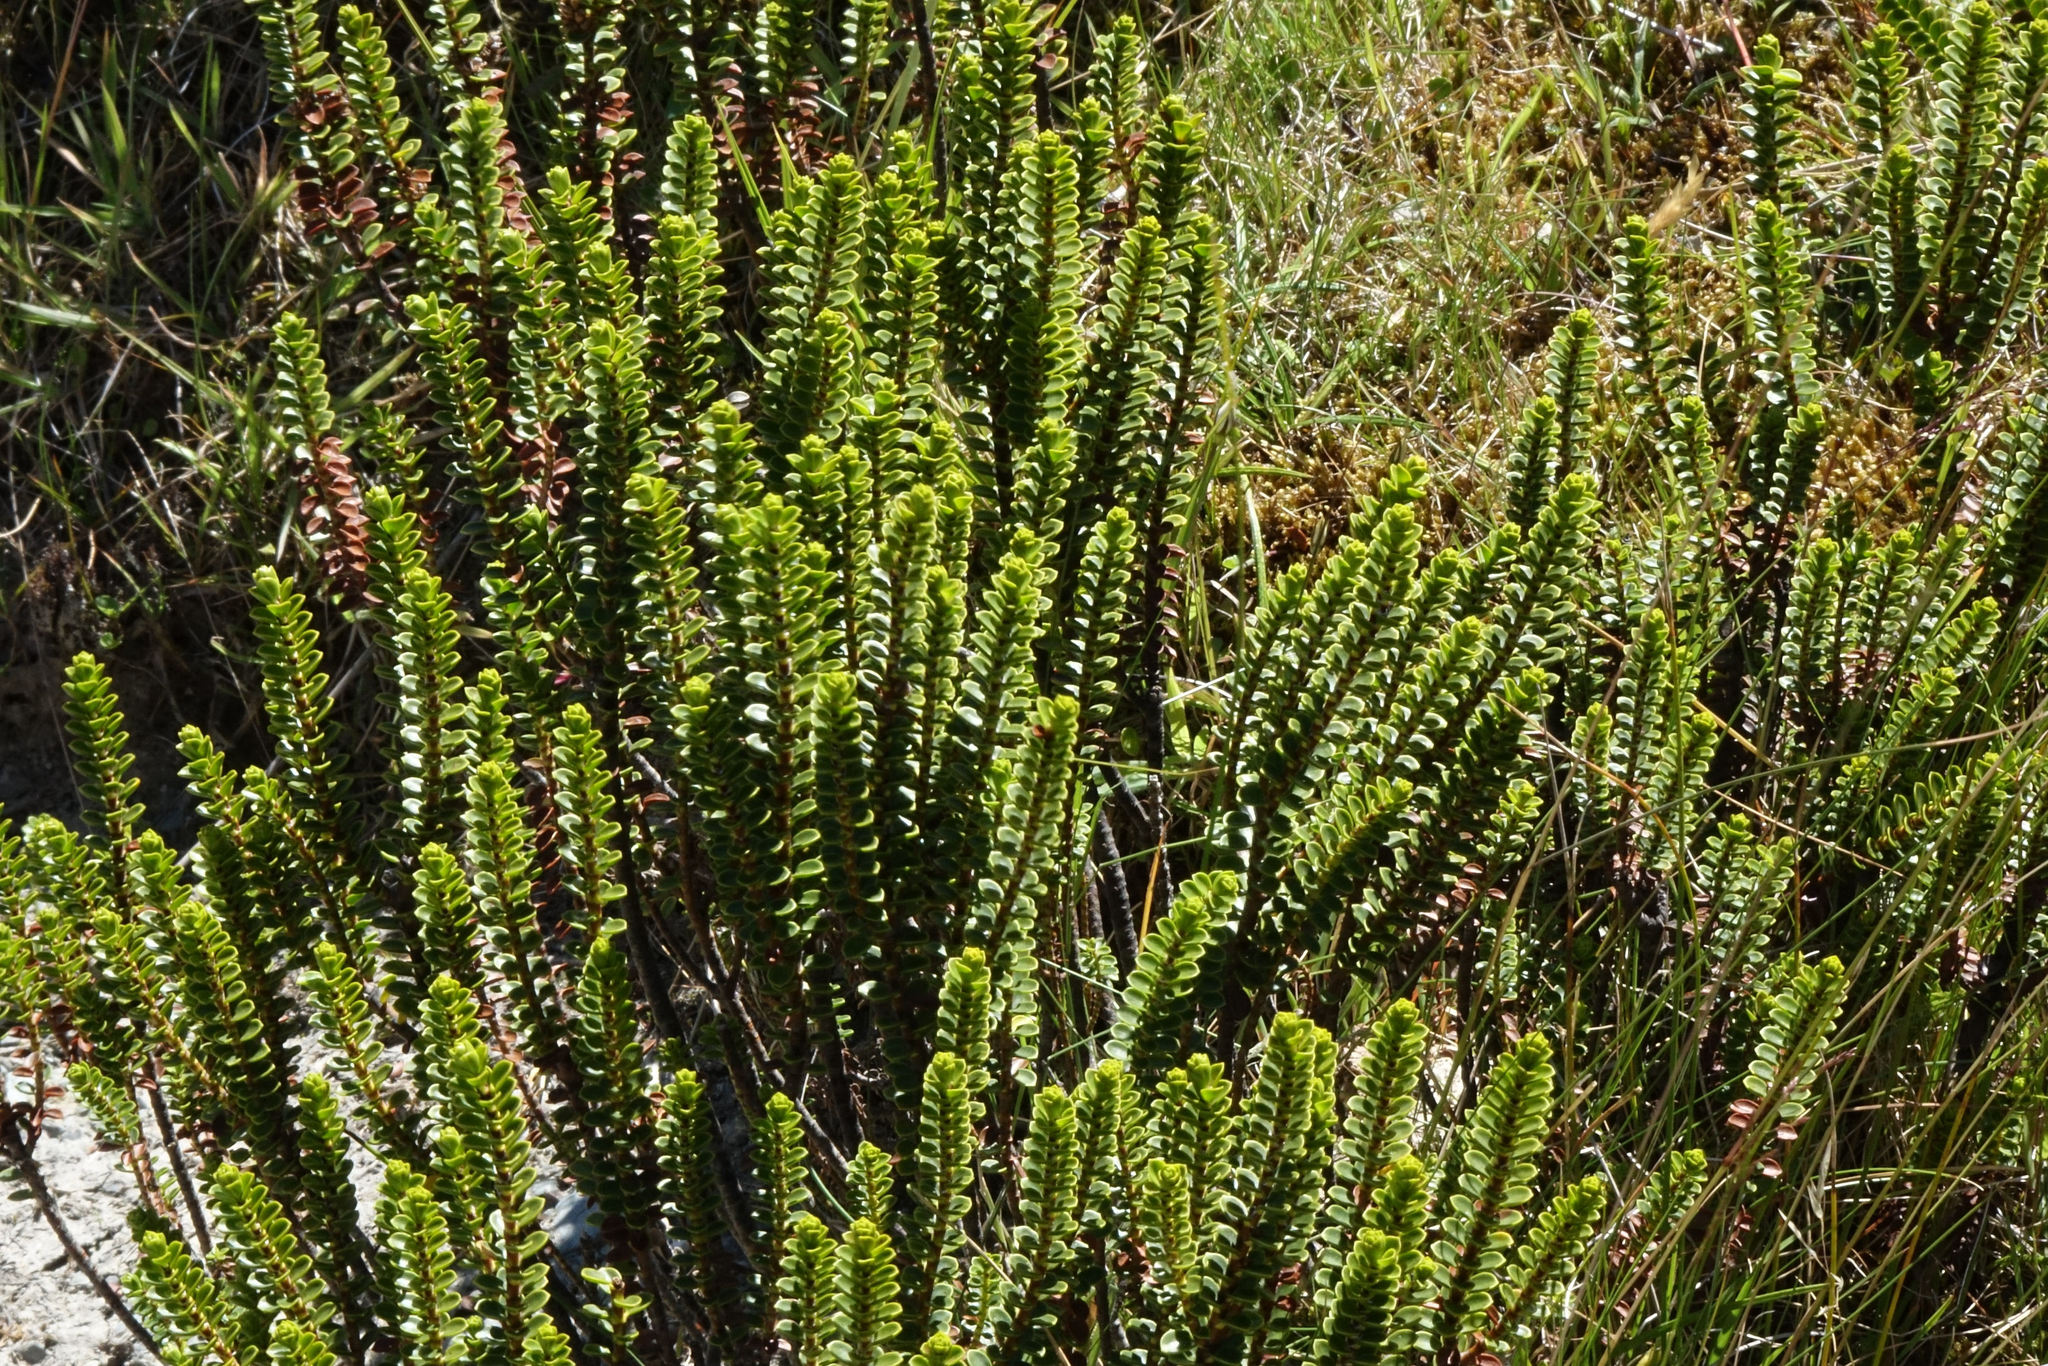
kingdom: Plantae
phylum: Tracheophyta
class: Magnoliopsida
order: Lamiales
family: Plantaginaceae
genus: Veronica
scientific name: Veronica pauciramosa
